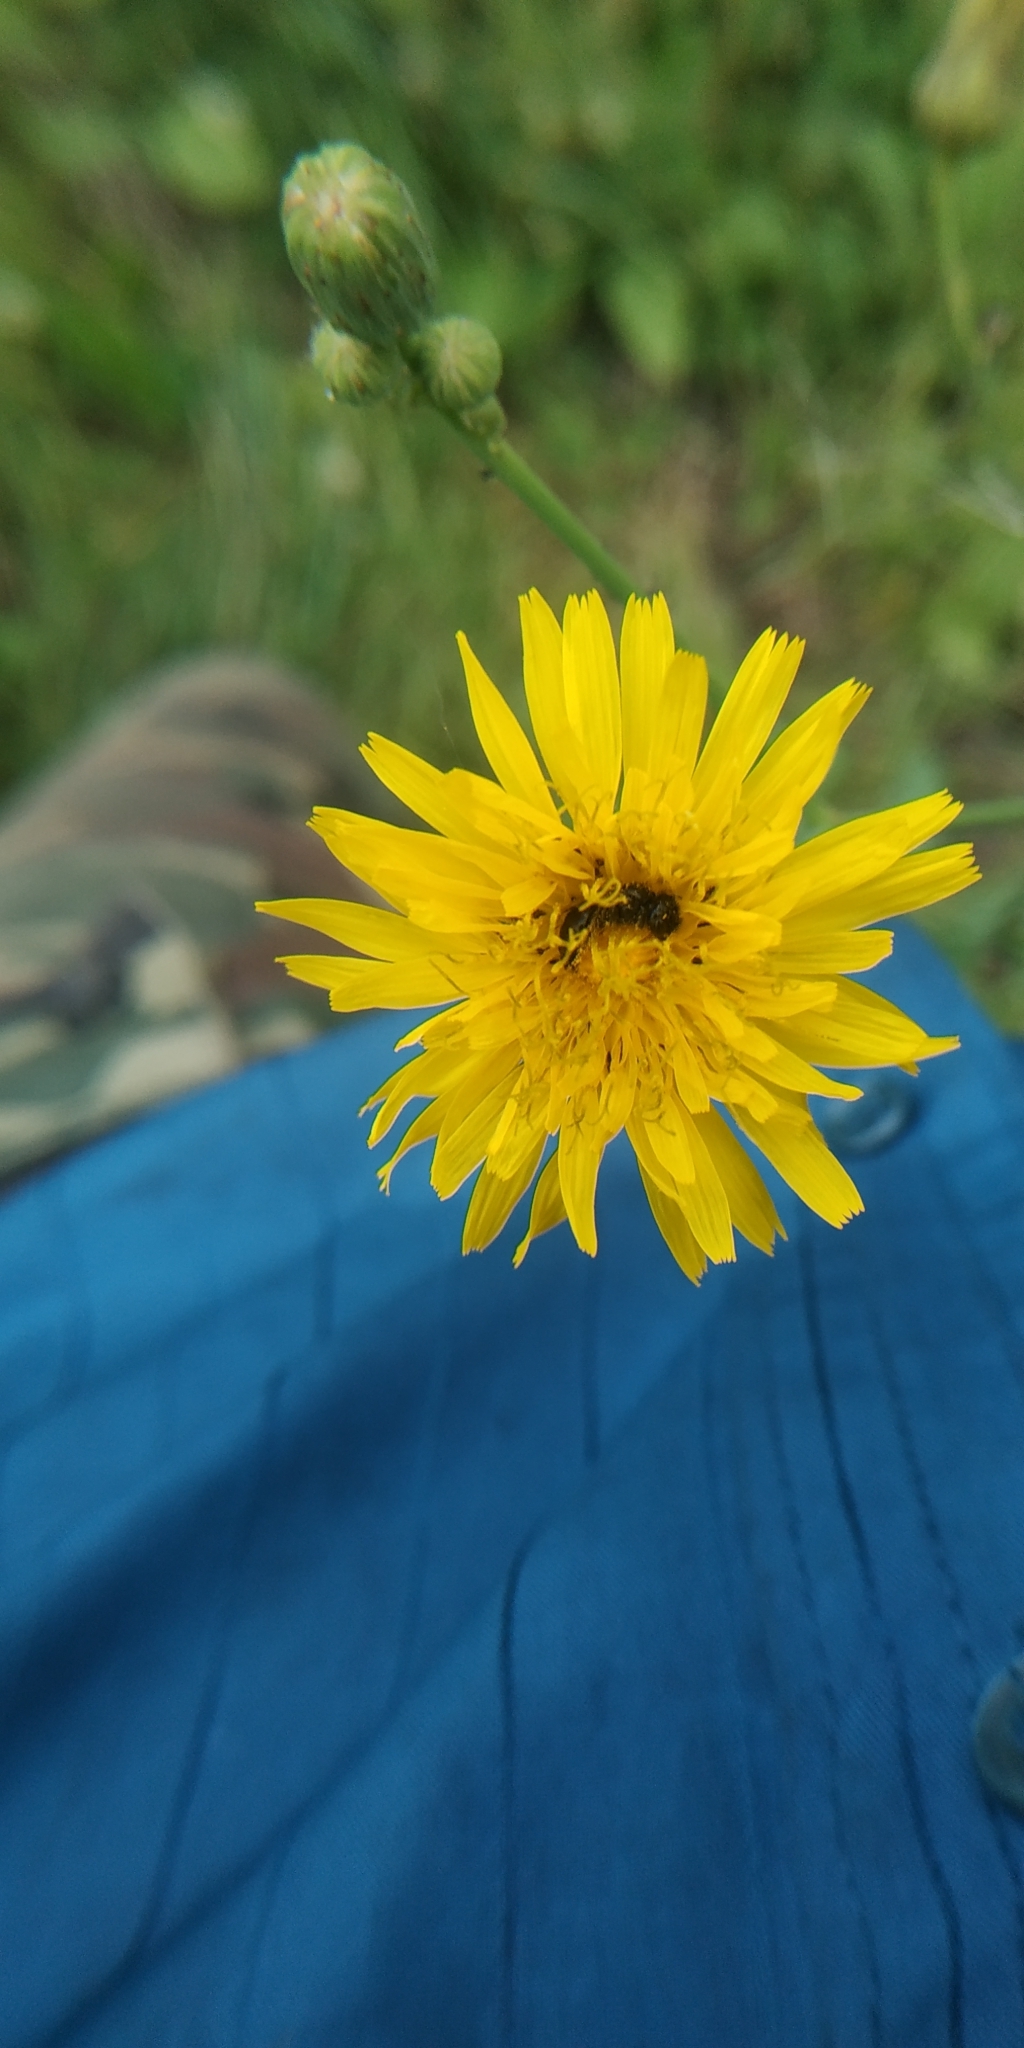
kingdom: Plantae
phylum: Tracheophyta
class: Magnoliopsida
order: Asterales
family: Asteraceae
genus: Sonchus
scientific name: Sonchus arvensis
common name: Perennial sow-thistle
